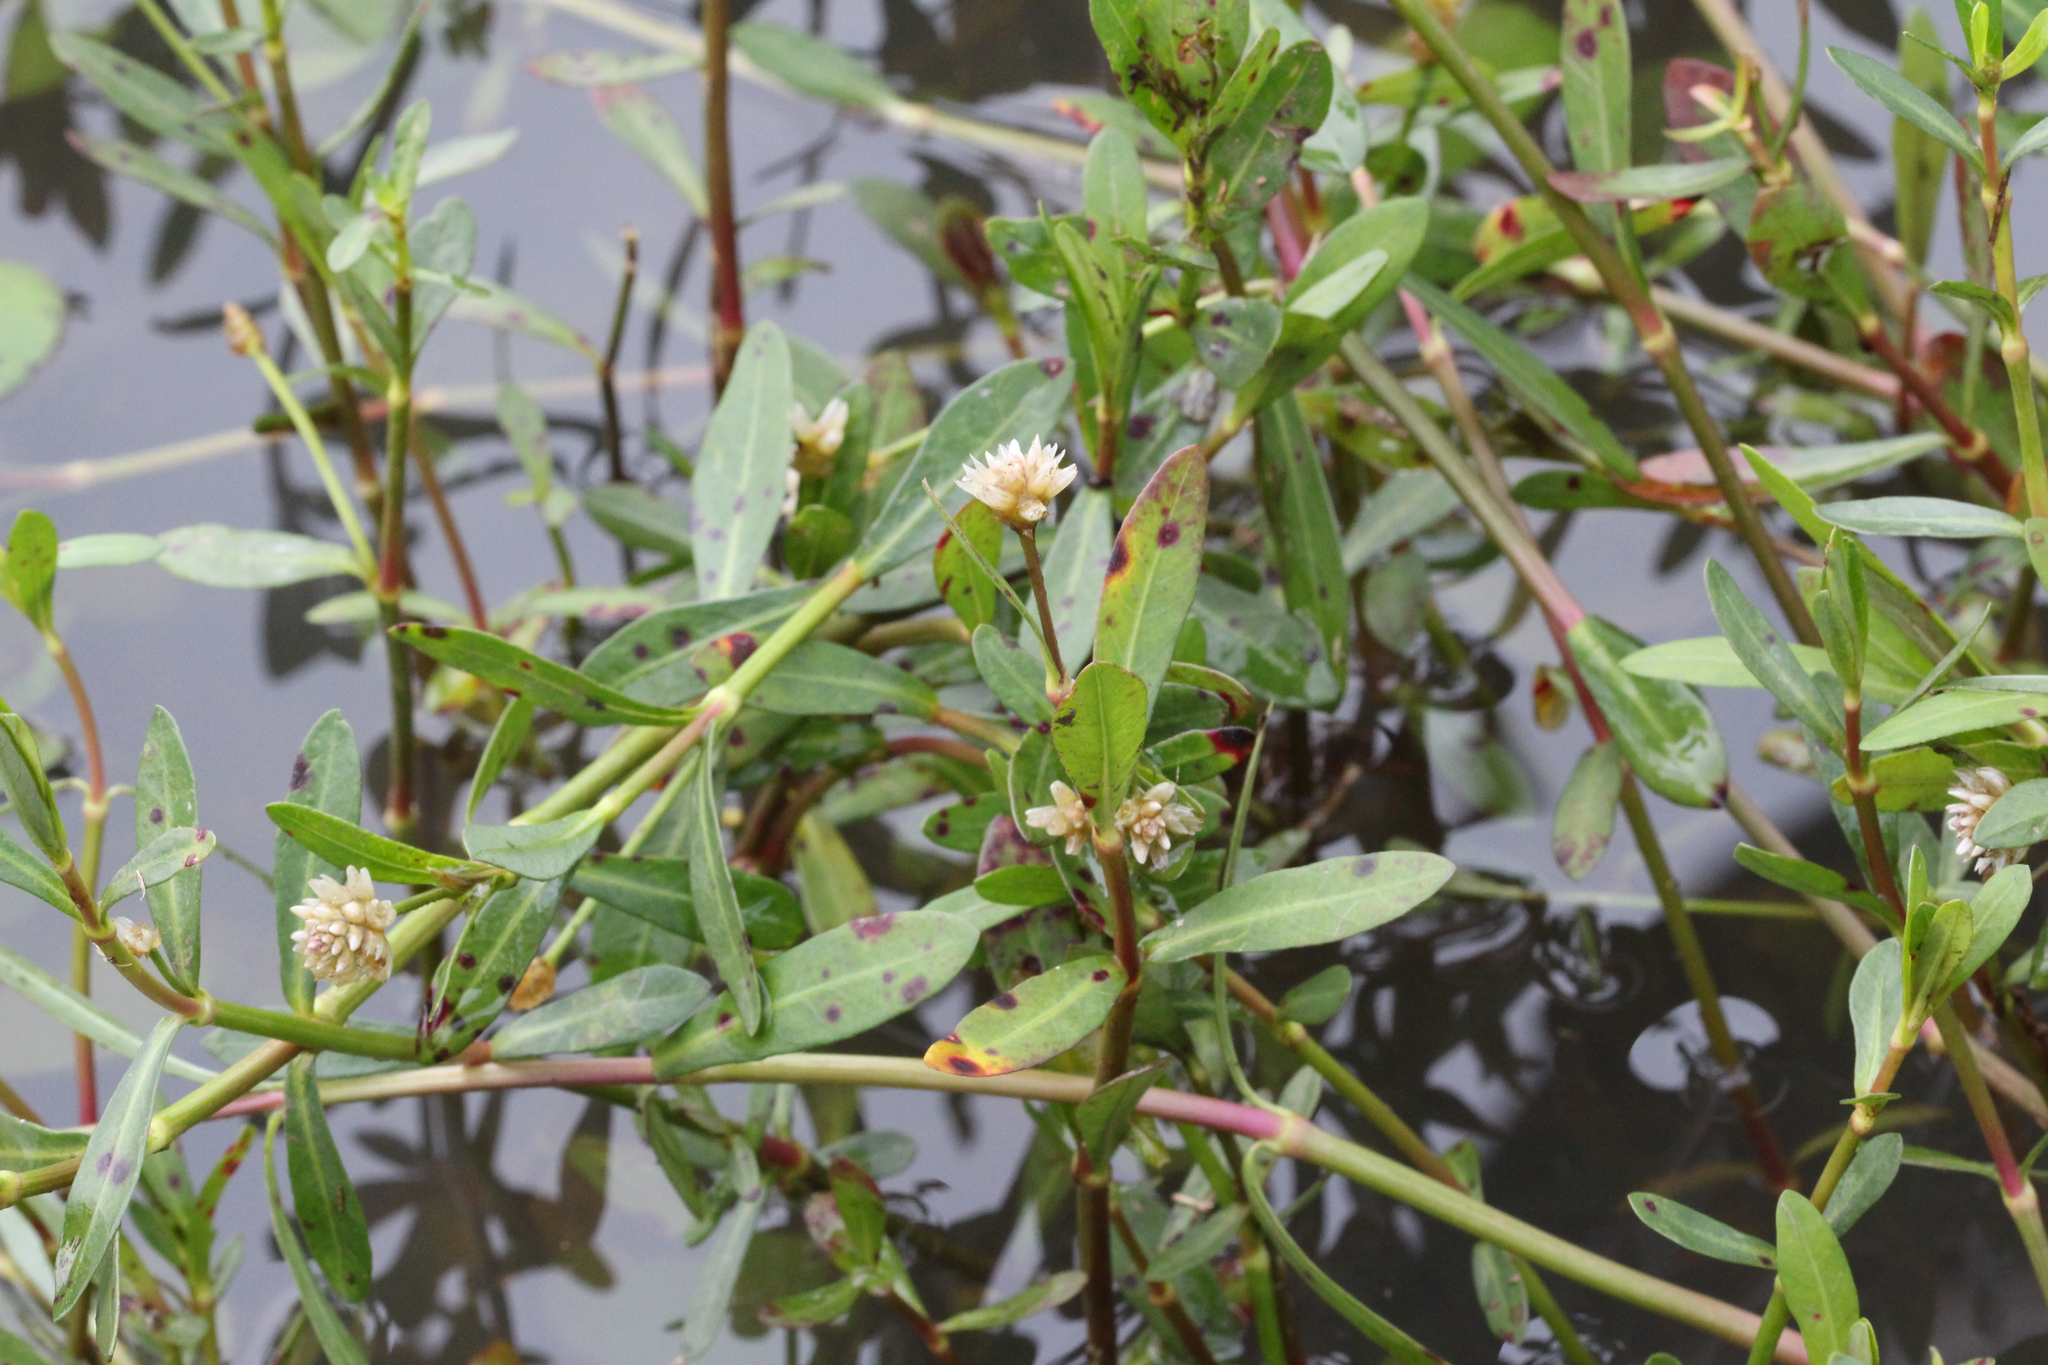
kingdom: Plantae
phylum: Tracheophyta
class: Magnoliopsida
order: Caryophyllales
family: Amaranthaceae
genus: Alternanthera
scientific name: Alternanthera philoxeroides
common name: Alligatorweed
